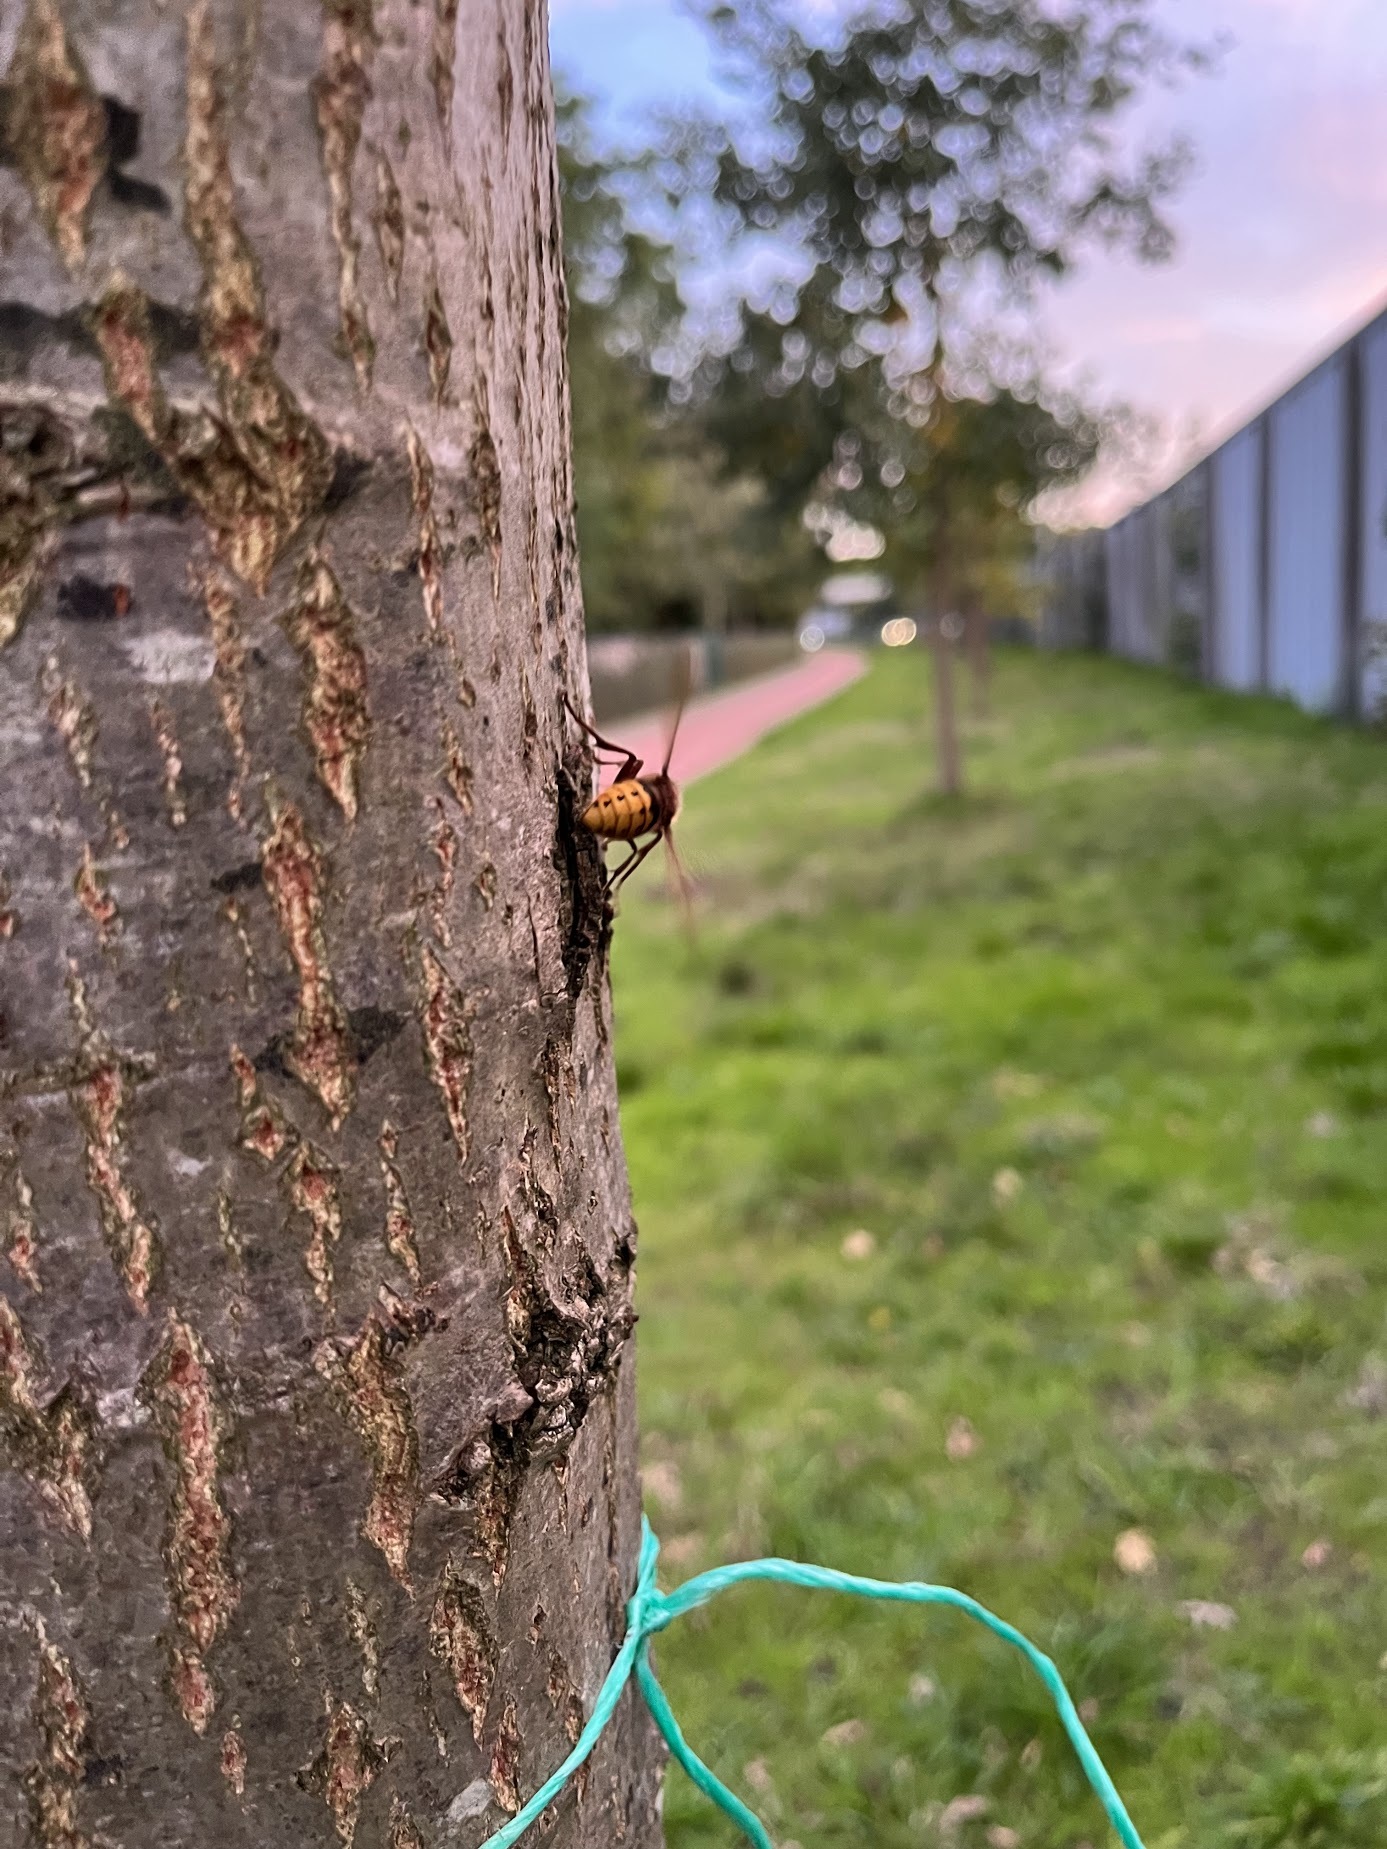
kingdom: Animalia
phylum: Arthropoda
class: Insecta
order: Hymenoptera
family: Vespidae
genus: Vespa
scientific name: Vespa crabro
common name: Hornet
